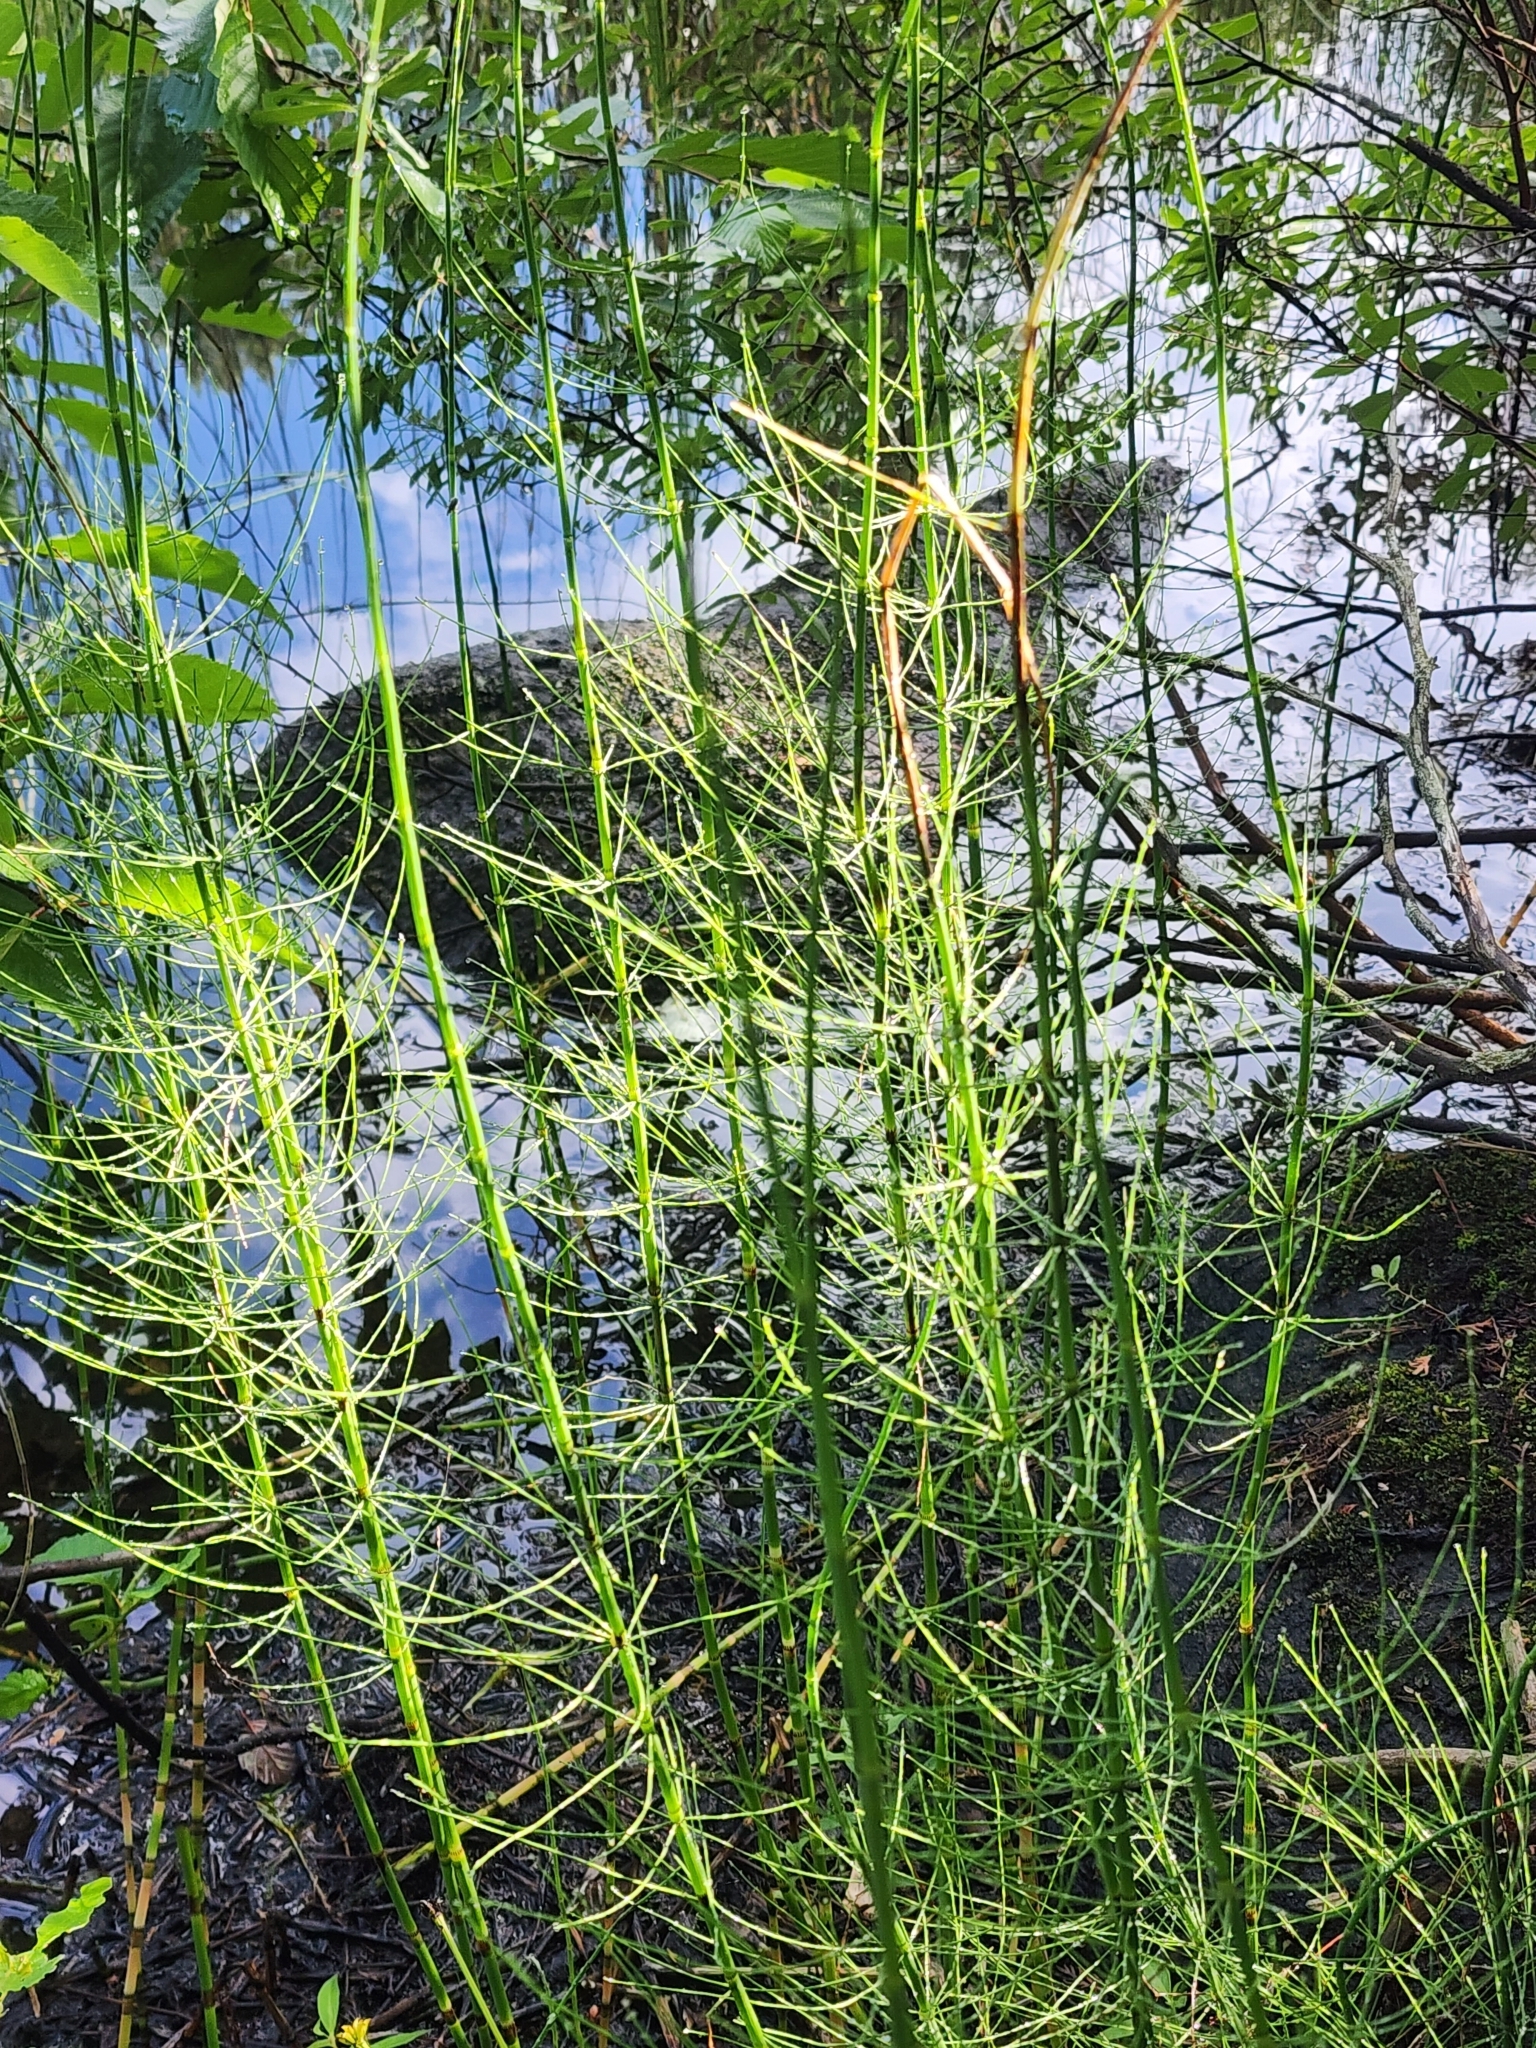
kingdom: Plantae
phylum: Tracheophyta
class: Polypodiopsida
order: Equisetales
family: Equisetaceae
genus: Equisetum
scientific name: Equisetum fluviatile
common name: Water horsetail
